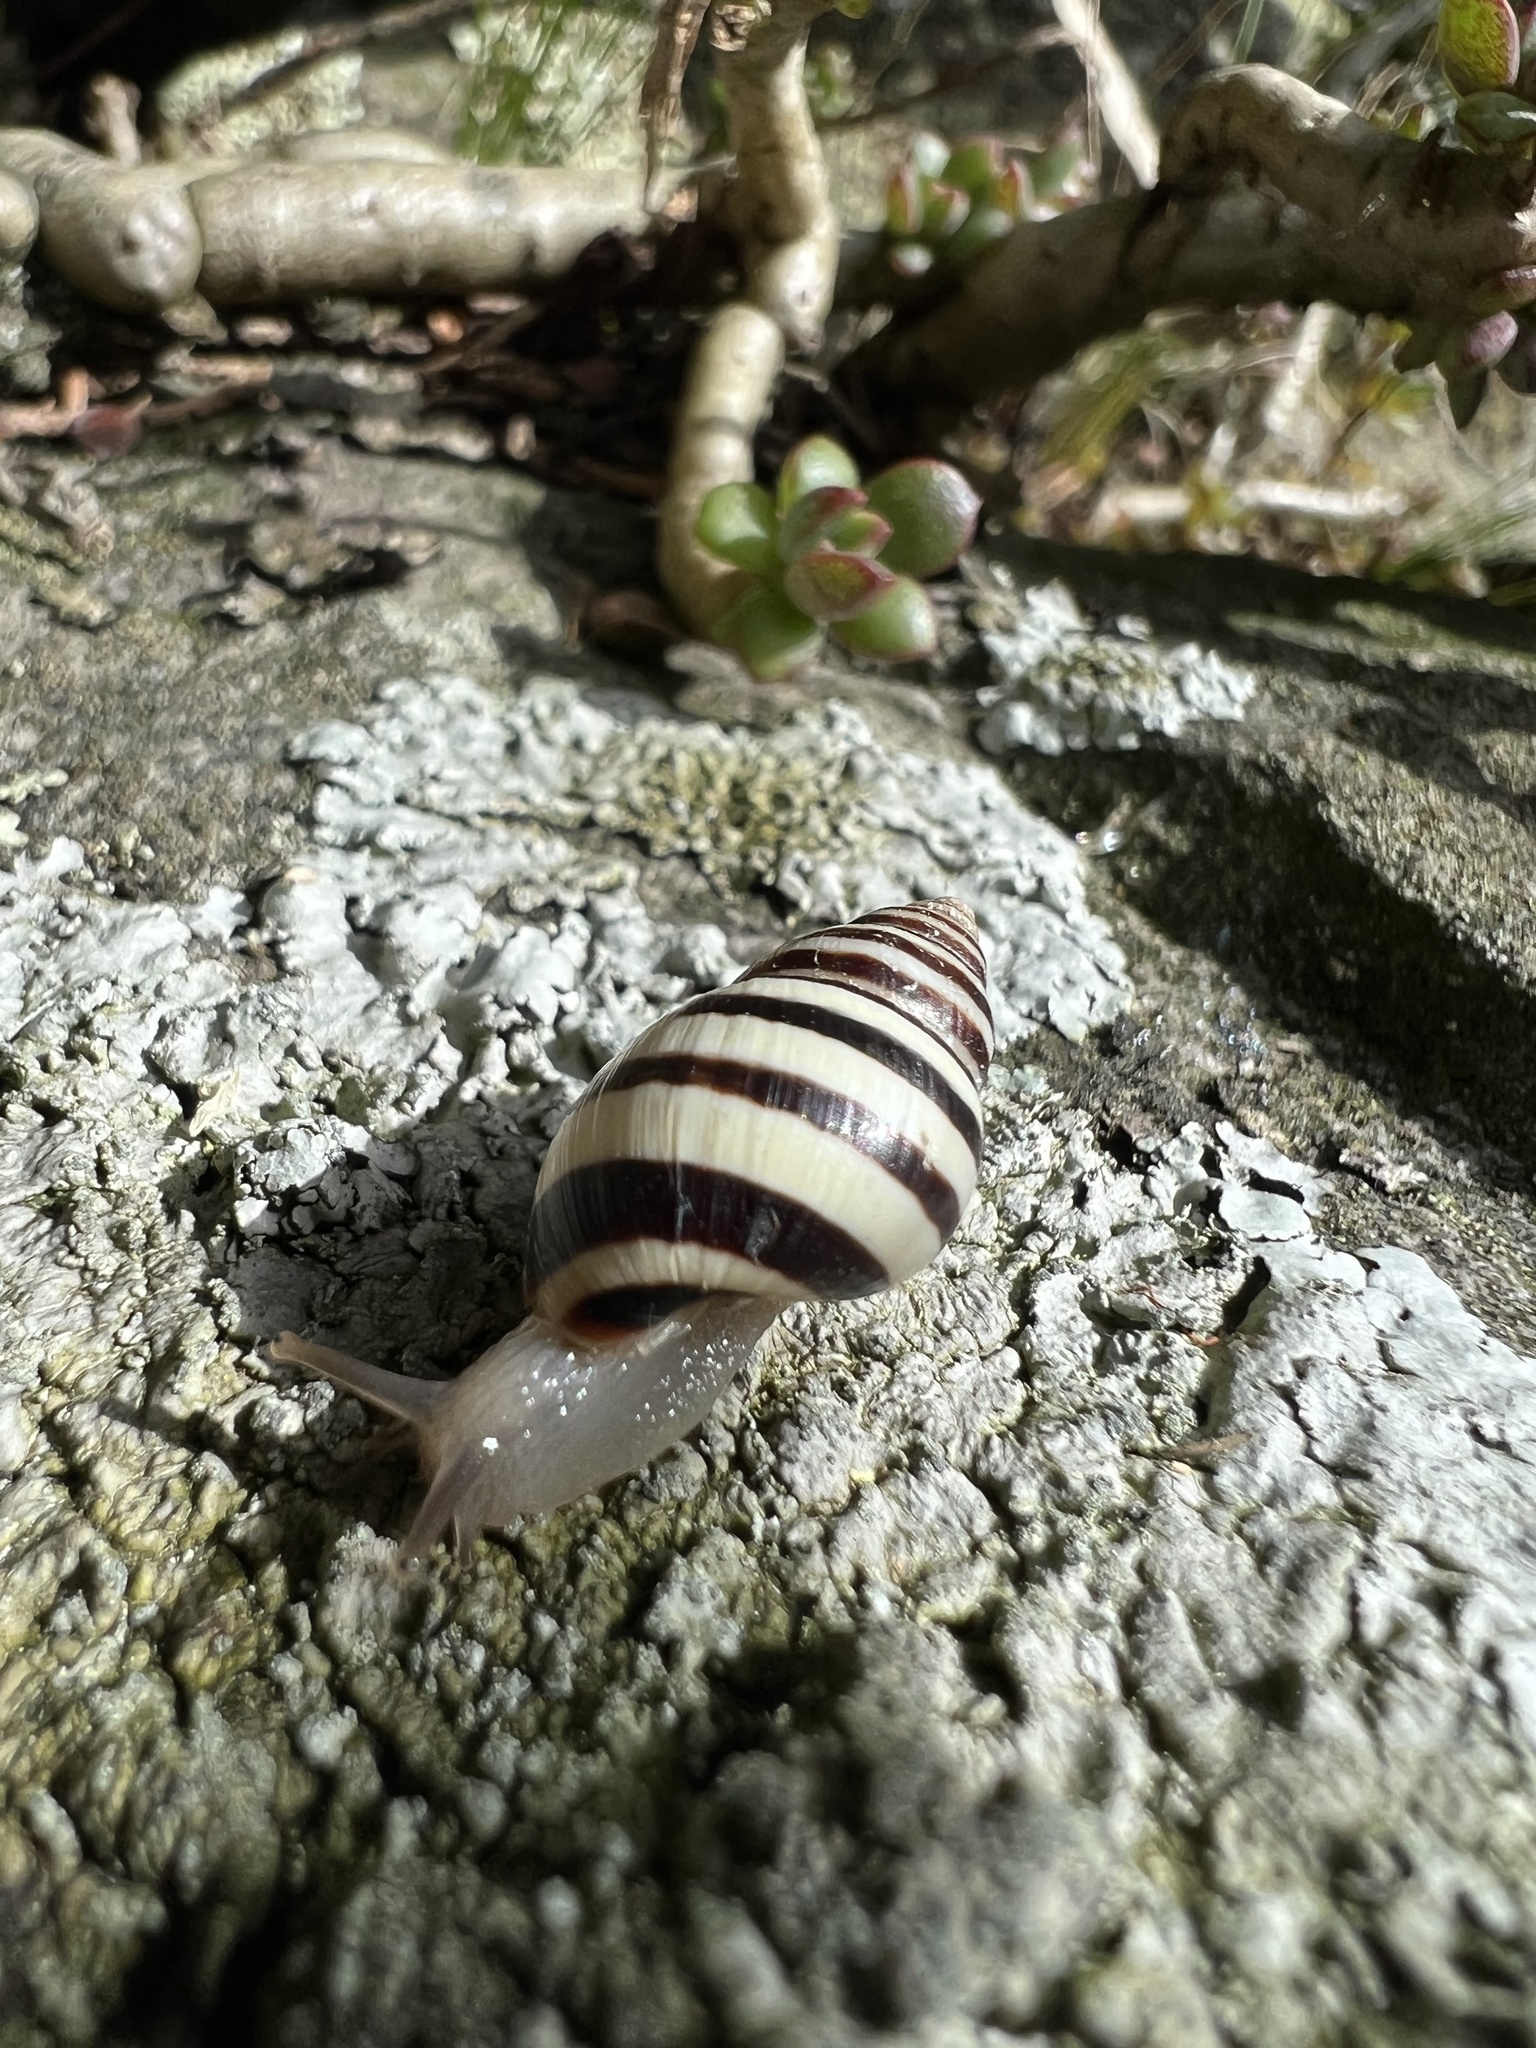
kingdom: Animalia
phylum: Mollusca
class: Gastropoda
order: Stylommatophora
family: Bulimulidae
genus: Drymaeus
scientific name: Drymaeus
